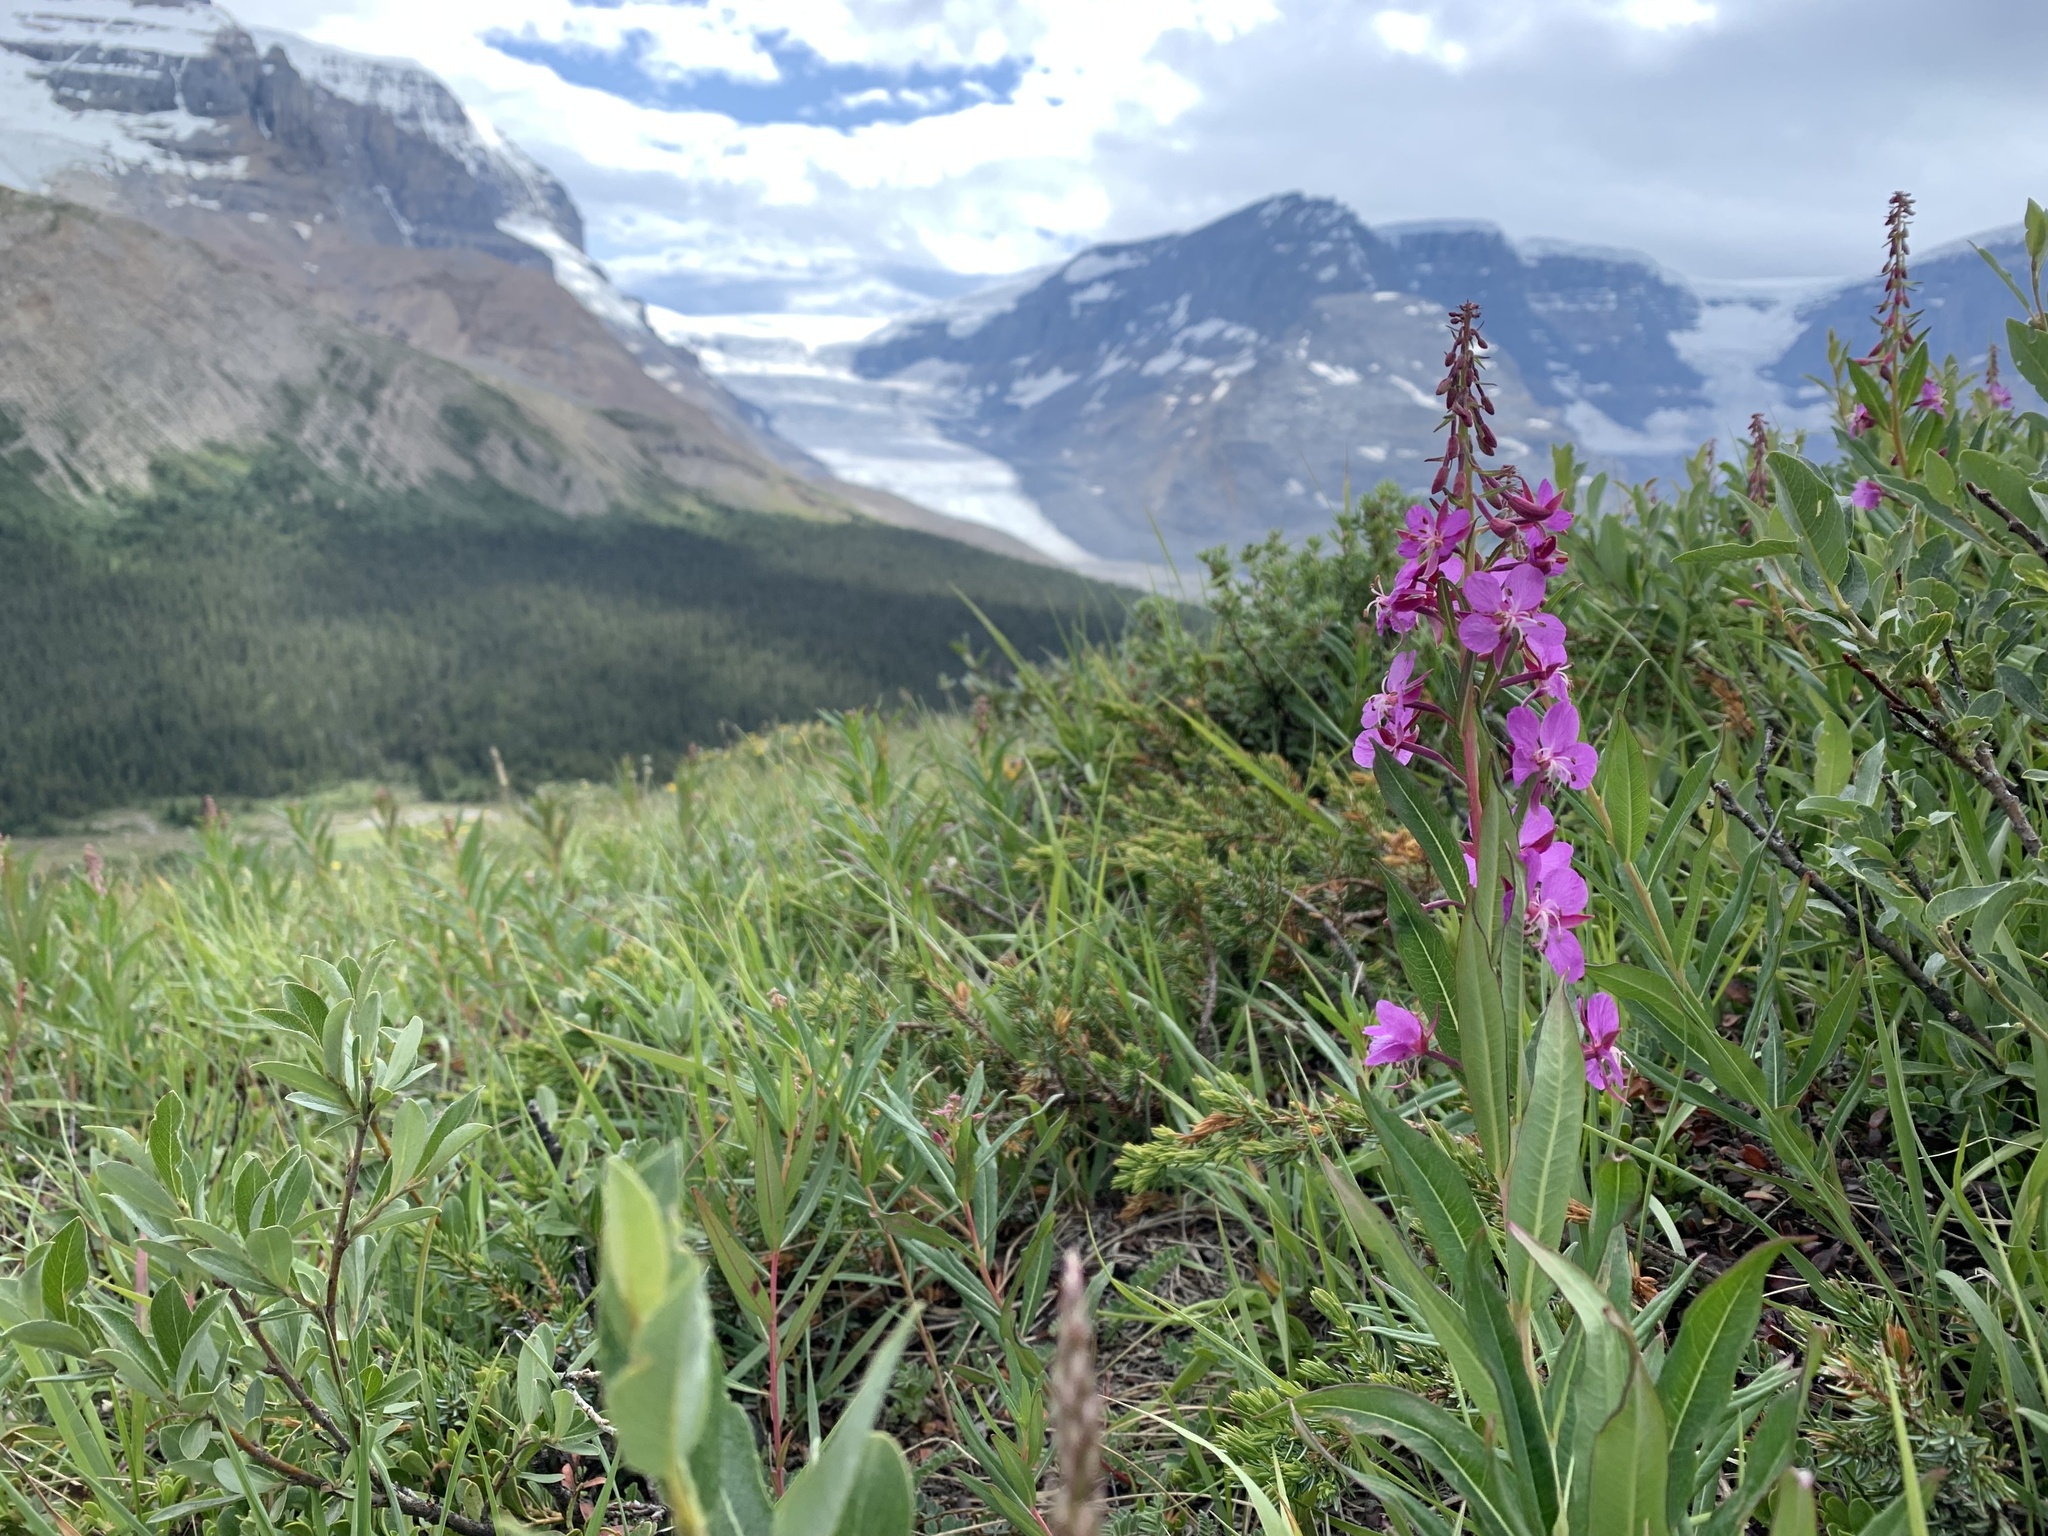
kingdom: Plantae
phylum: Tracheophyta
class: Magnoliopsida
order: Myrtales
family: Onagraceae
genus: Chamaenerion
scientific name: Chamaenerion angustifolium
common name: Fireweed
